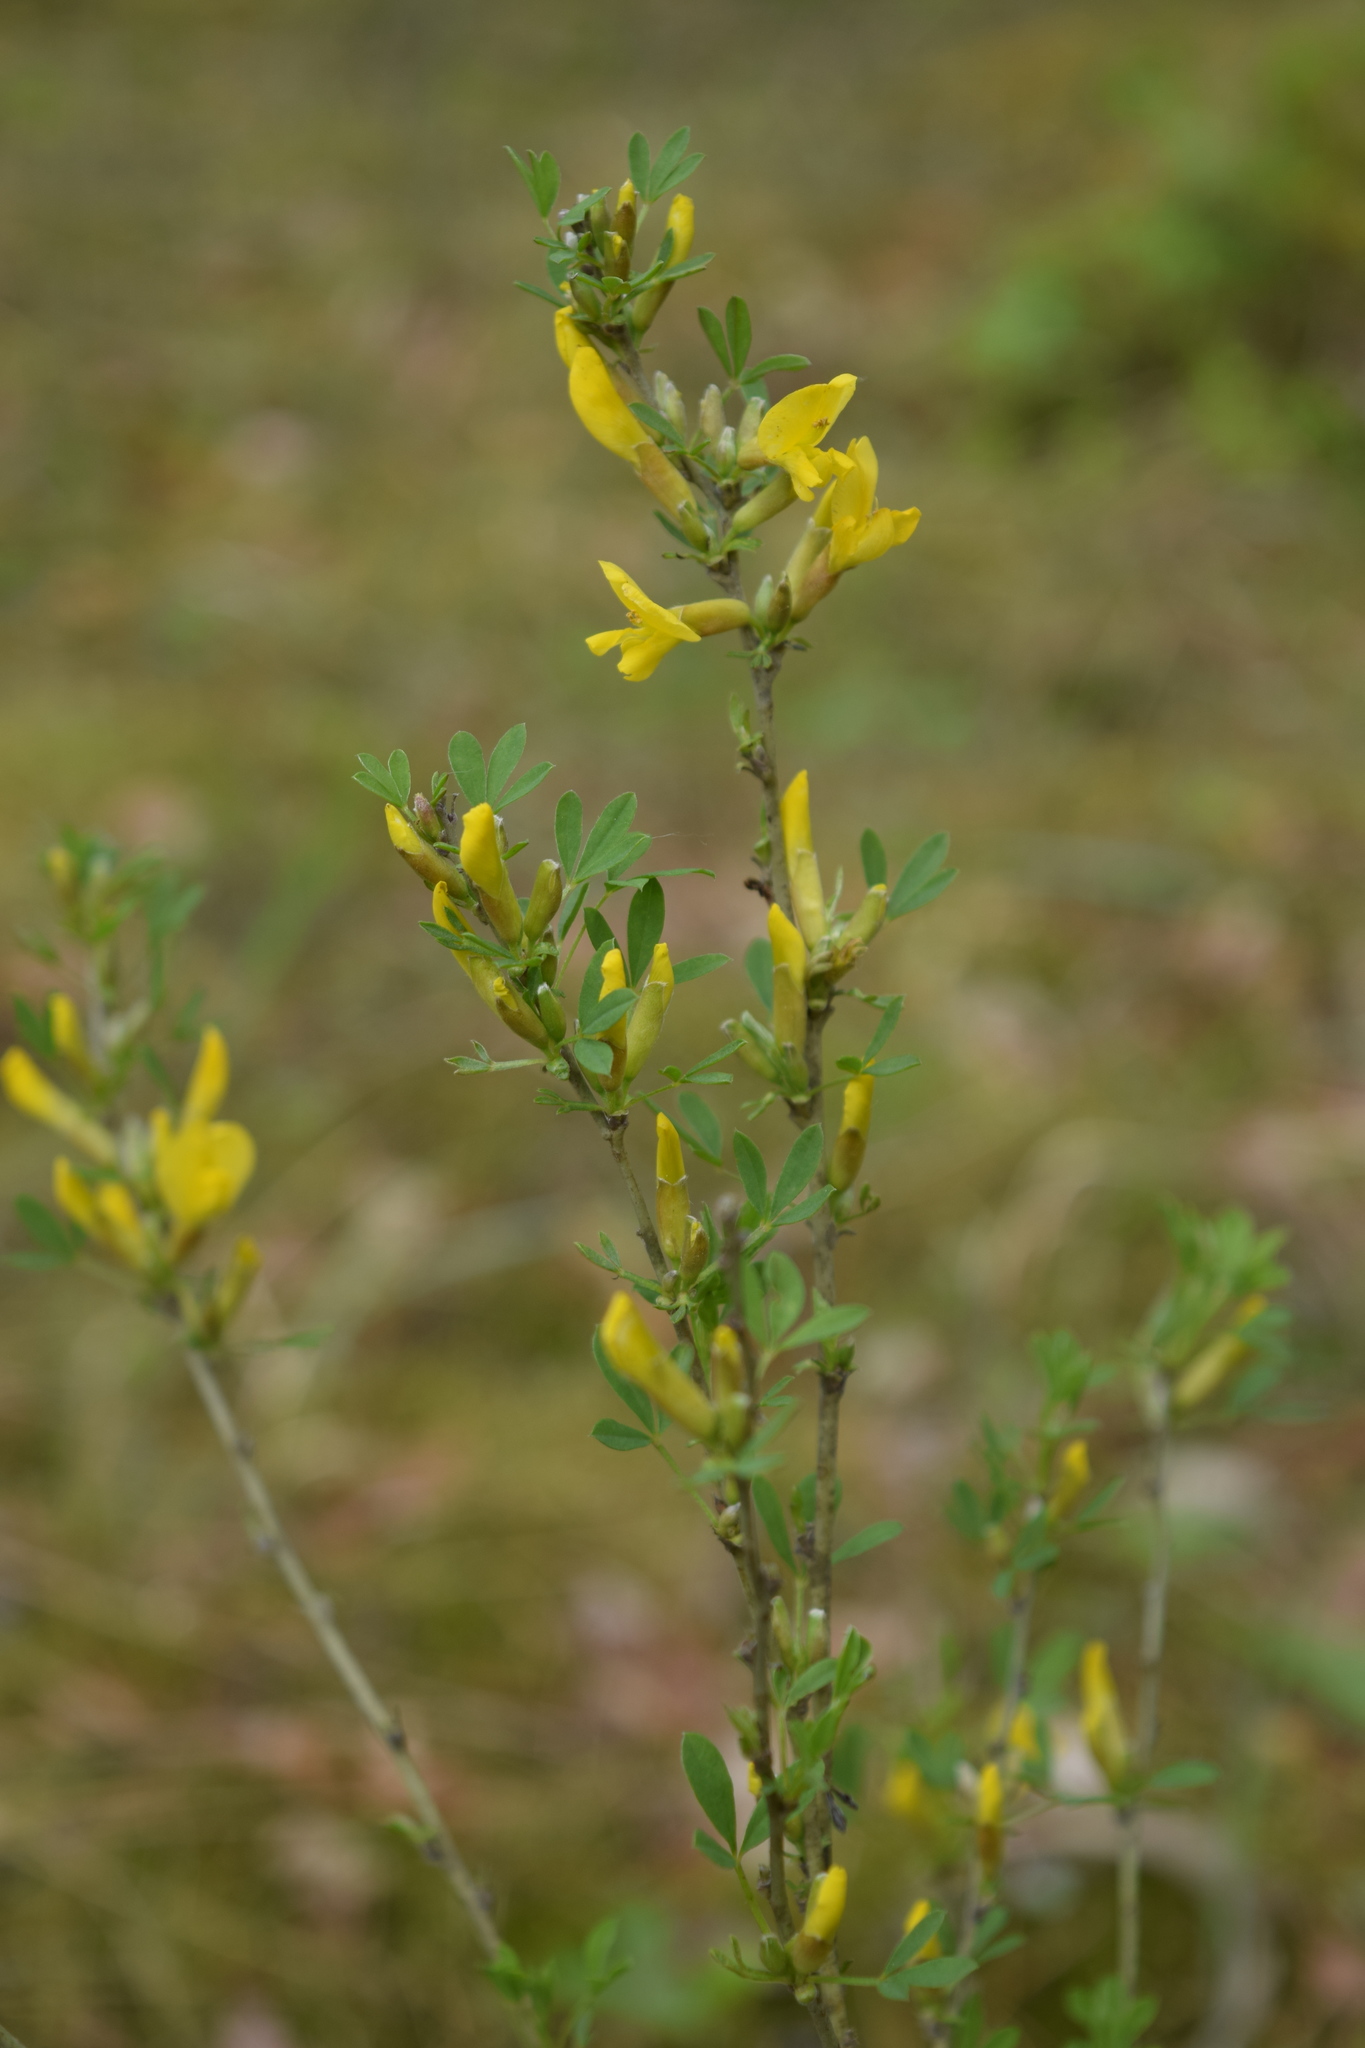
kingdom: Plantae
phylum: Tracheophyta
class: Magnoliopsida
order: Fabales
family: Fabaceae
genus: Chamaecytisus
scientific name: Chamaecytisus ruthenicus
